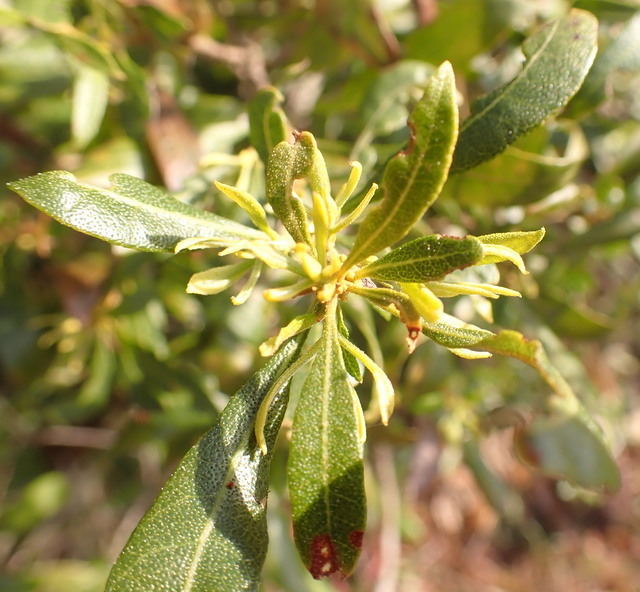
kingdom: Plantae
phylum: Tracheophyta
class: Magnoliopsida
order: Fagales
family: Myricaceae
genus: Morella
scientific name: Morella cerifera
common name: Wax myrtle
